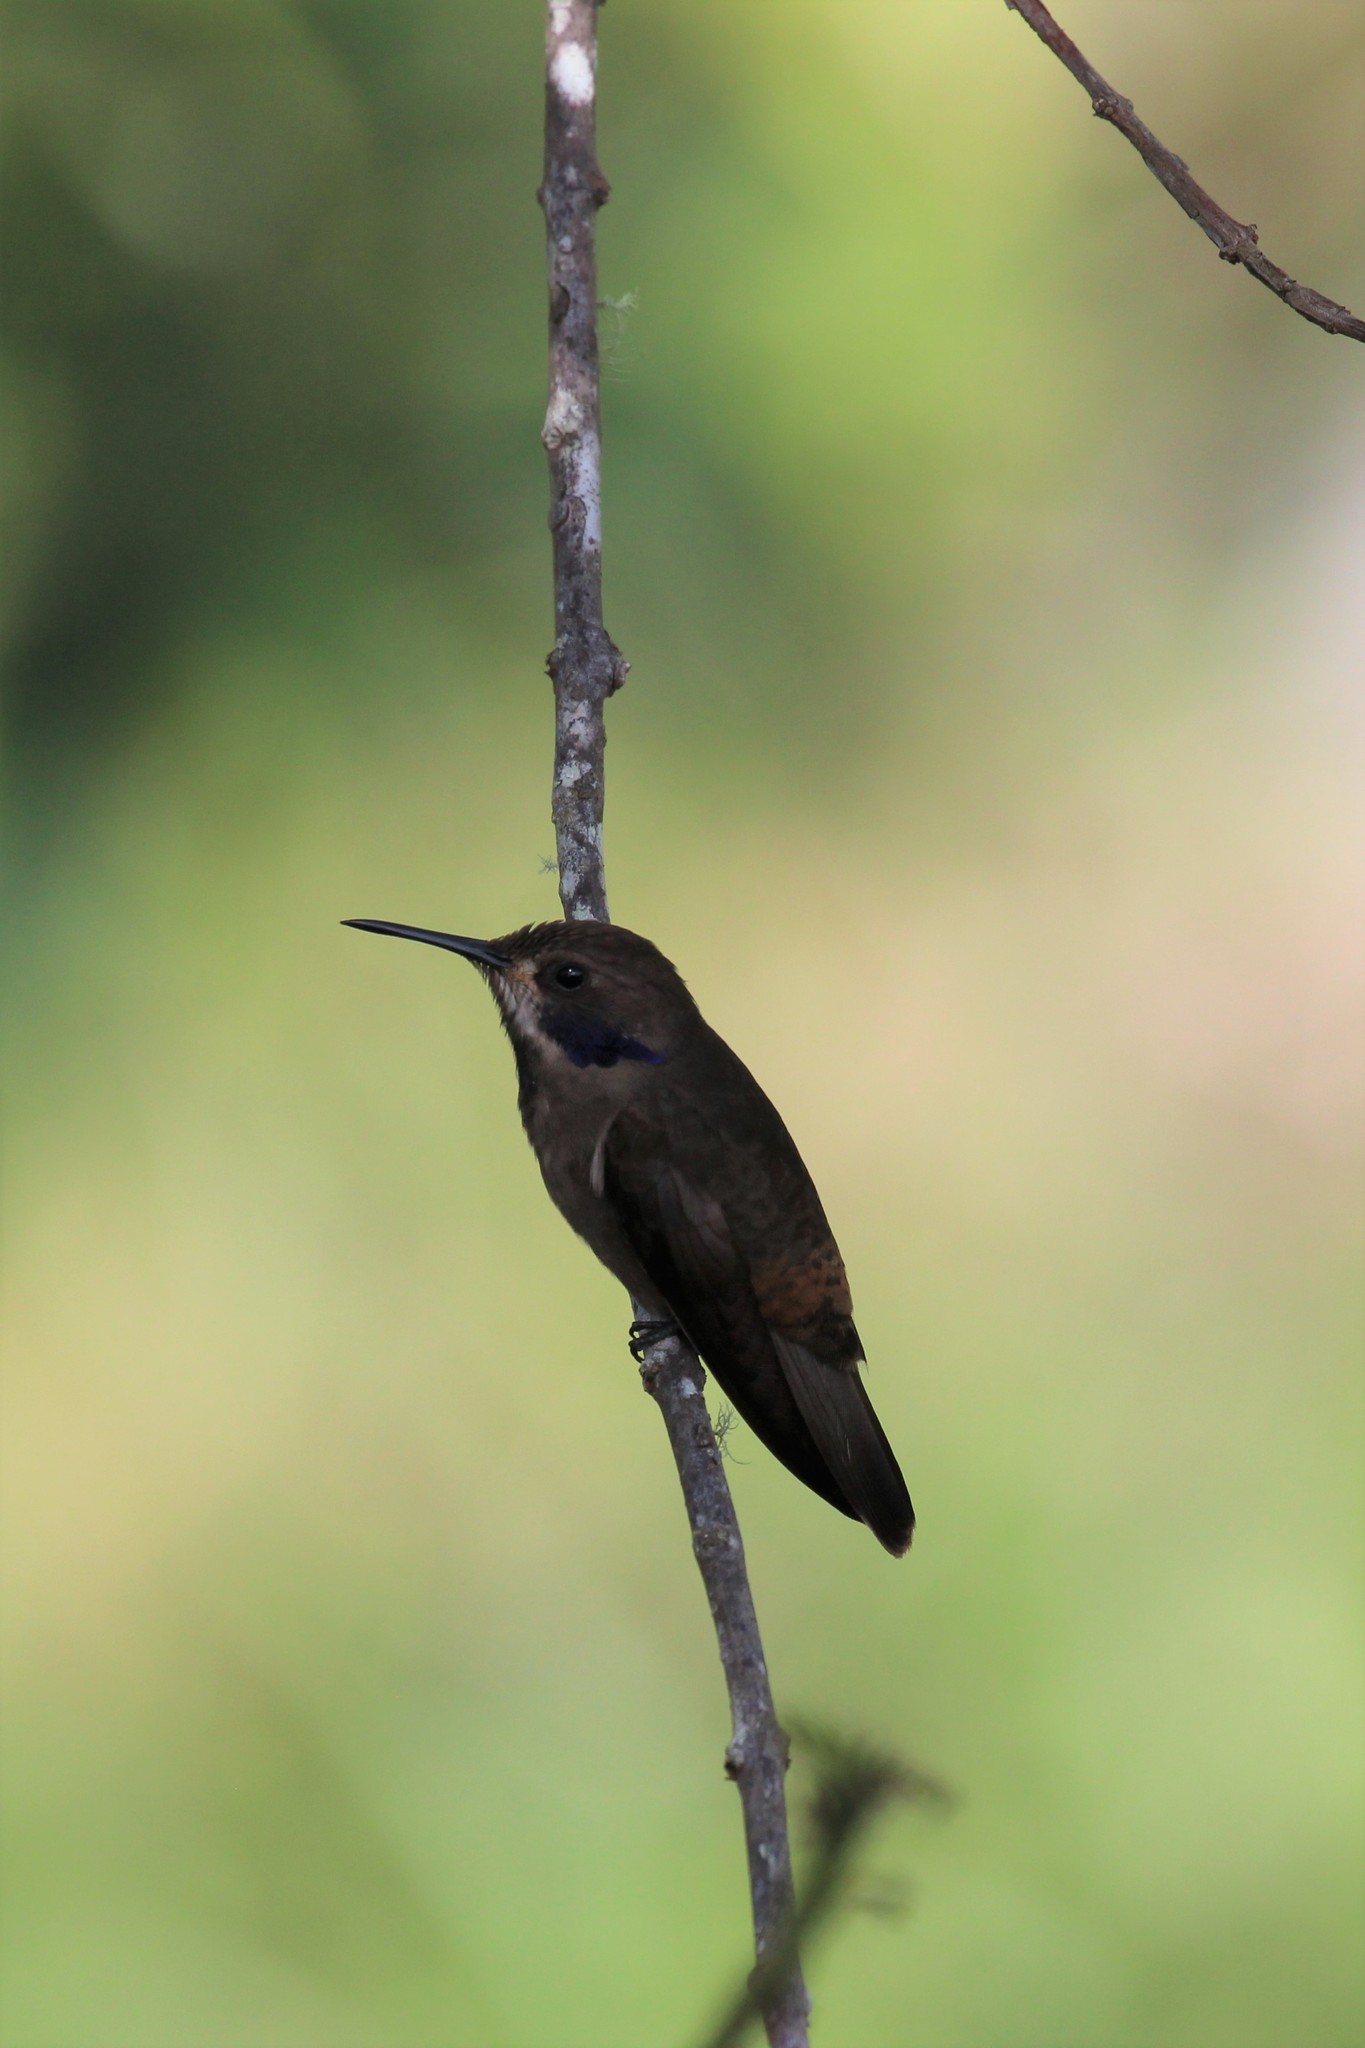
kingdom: Animalia
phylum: Chordata
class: Aves
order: Apodiformes
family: Trochilidae
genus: Colibri
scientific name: Colibri delphinae
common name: Brown violetear
